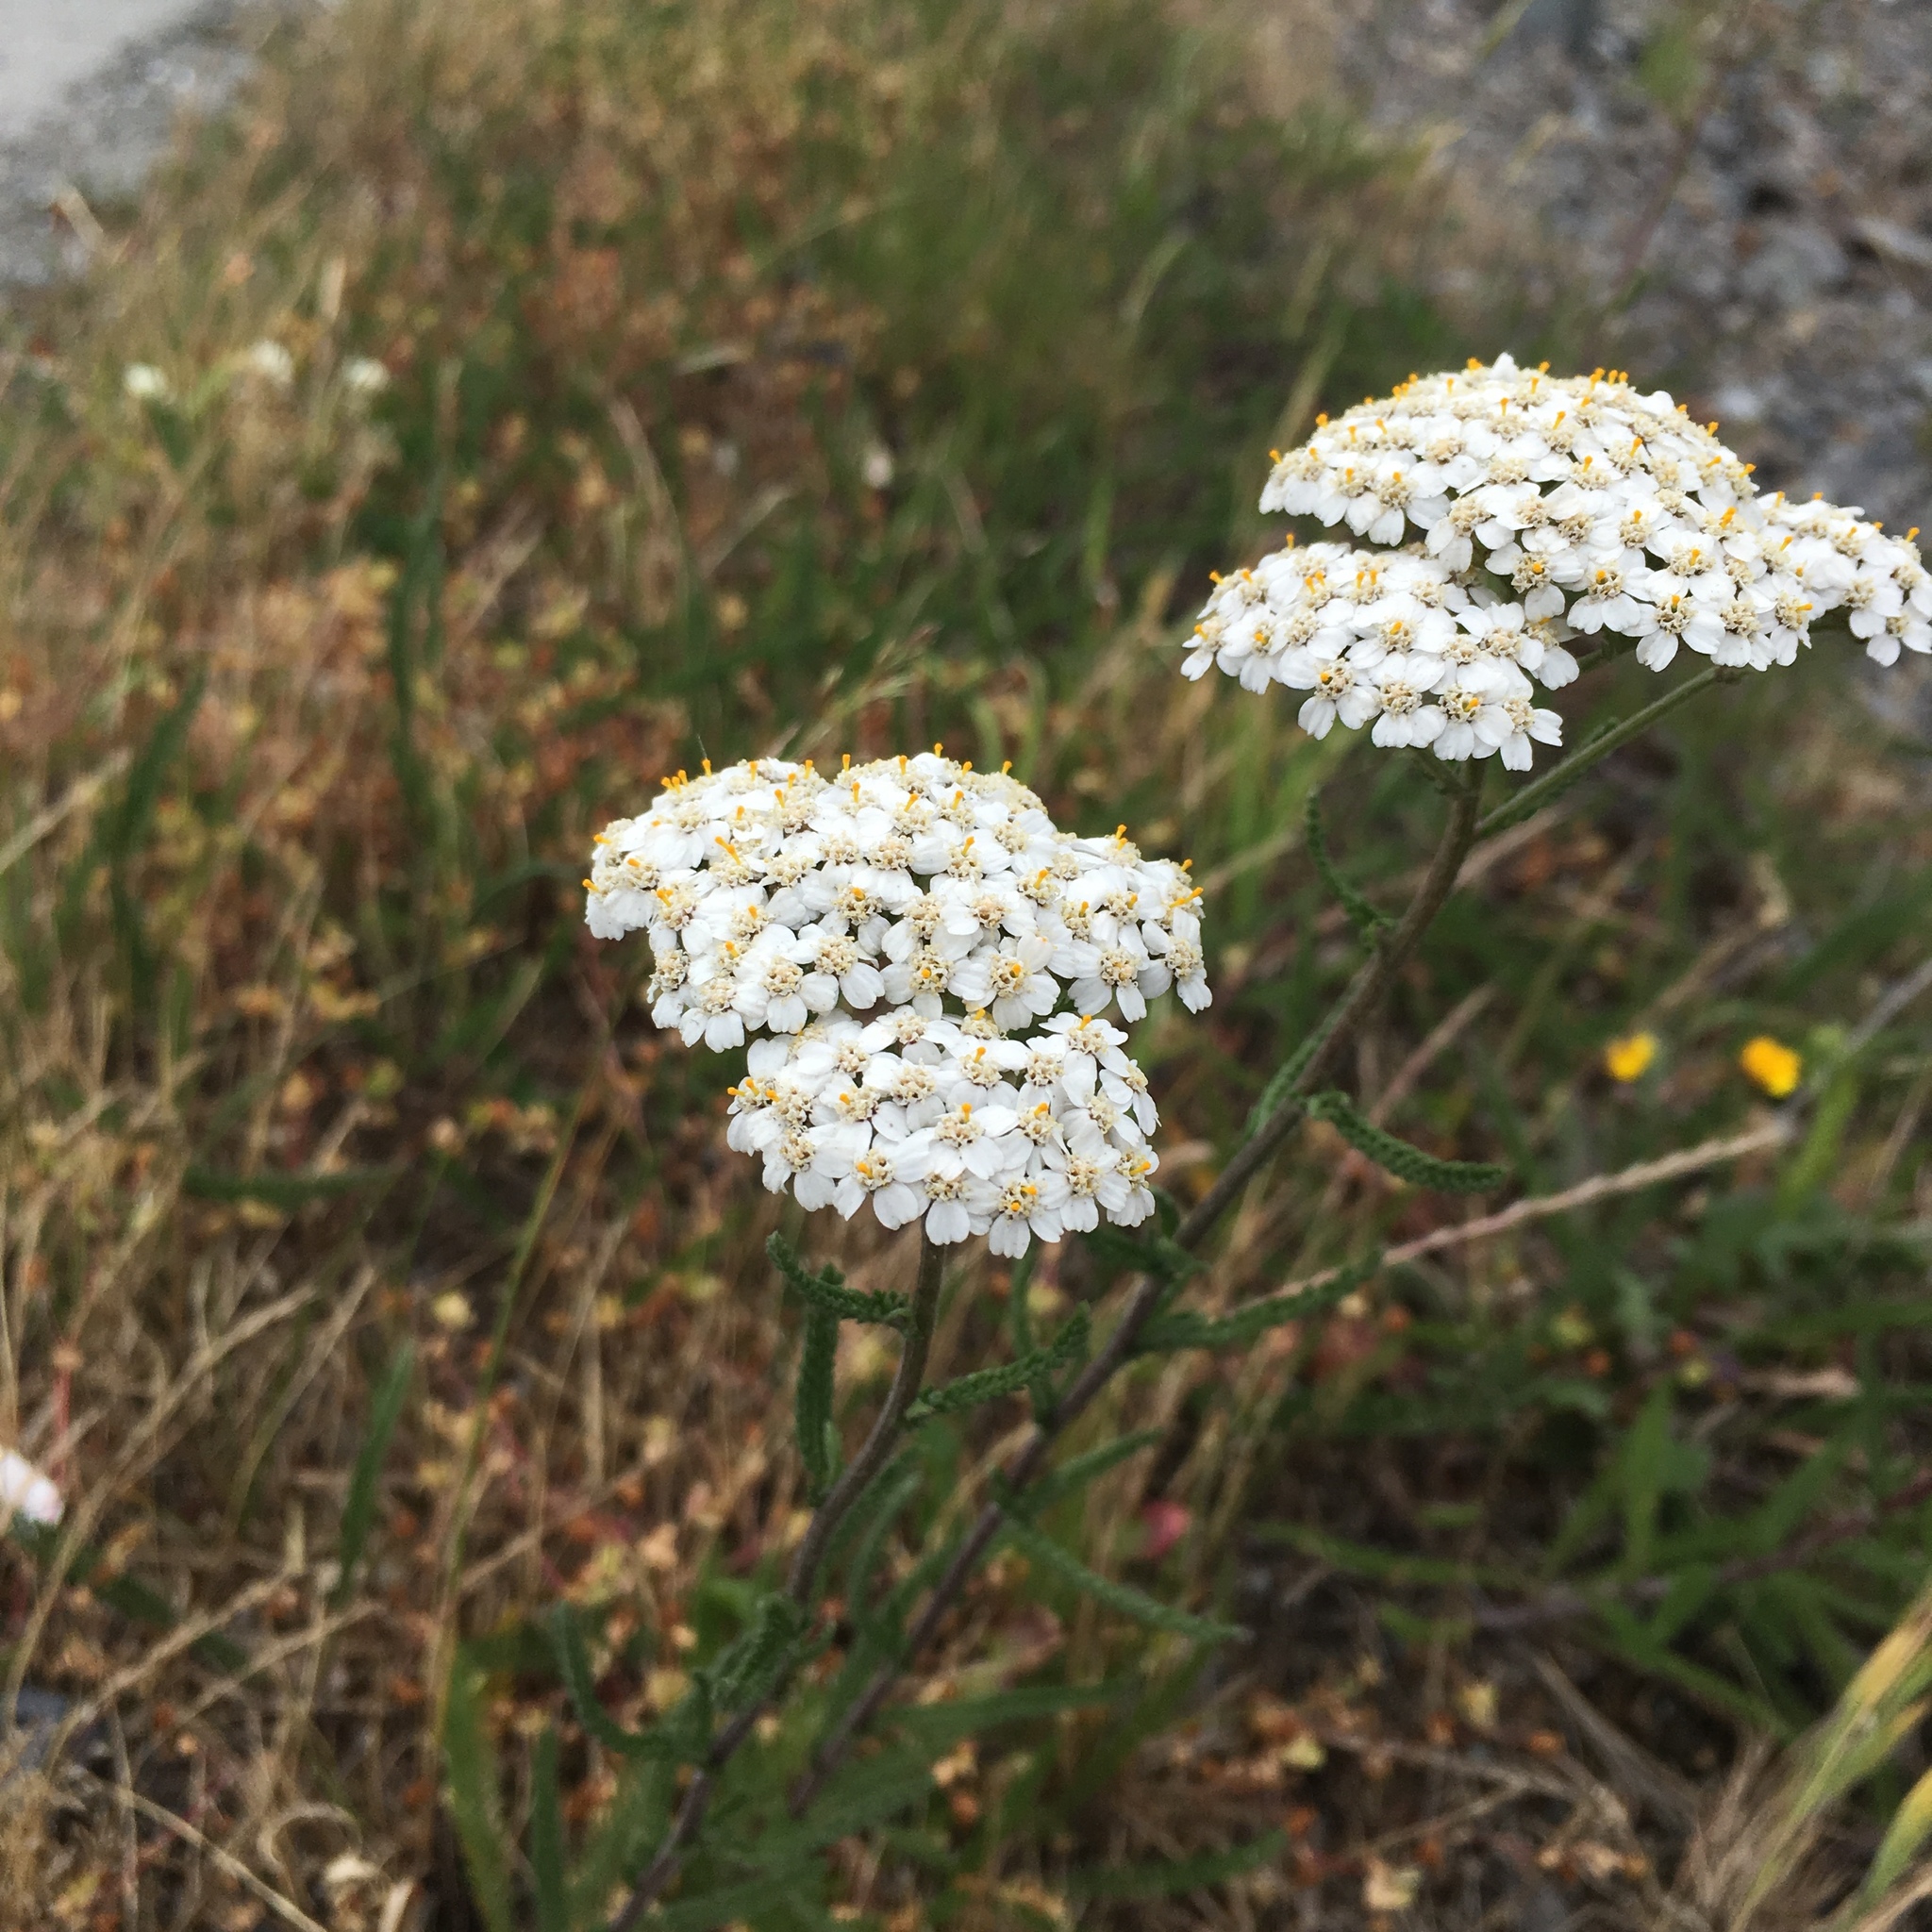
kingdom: Plantae
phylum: Tracheophyta
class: Magnoliopsida
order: Asterales
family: Asteraceae
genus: Achillea
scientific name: Achillea millefolium
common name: Yarrow
